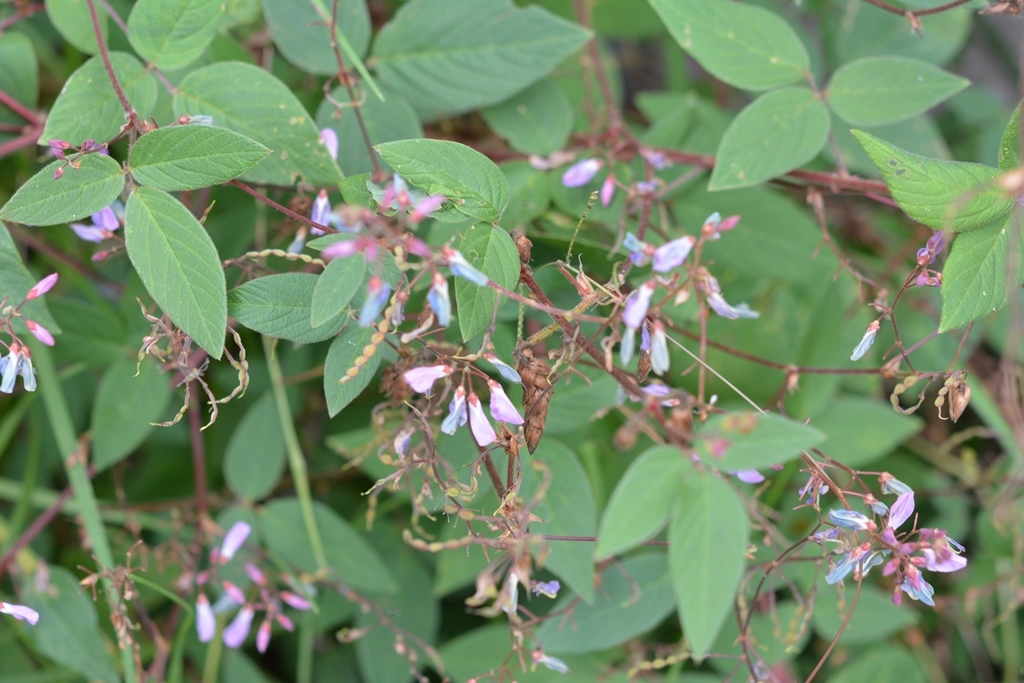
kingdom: Plantae
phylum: Tracheophyta
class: Magnoliopsida
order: Fabales
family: Fabaceae
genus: Desmodium
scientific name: Desmodium pringlei
